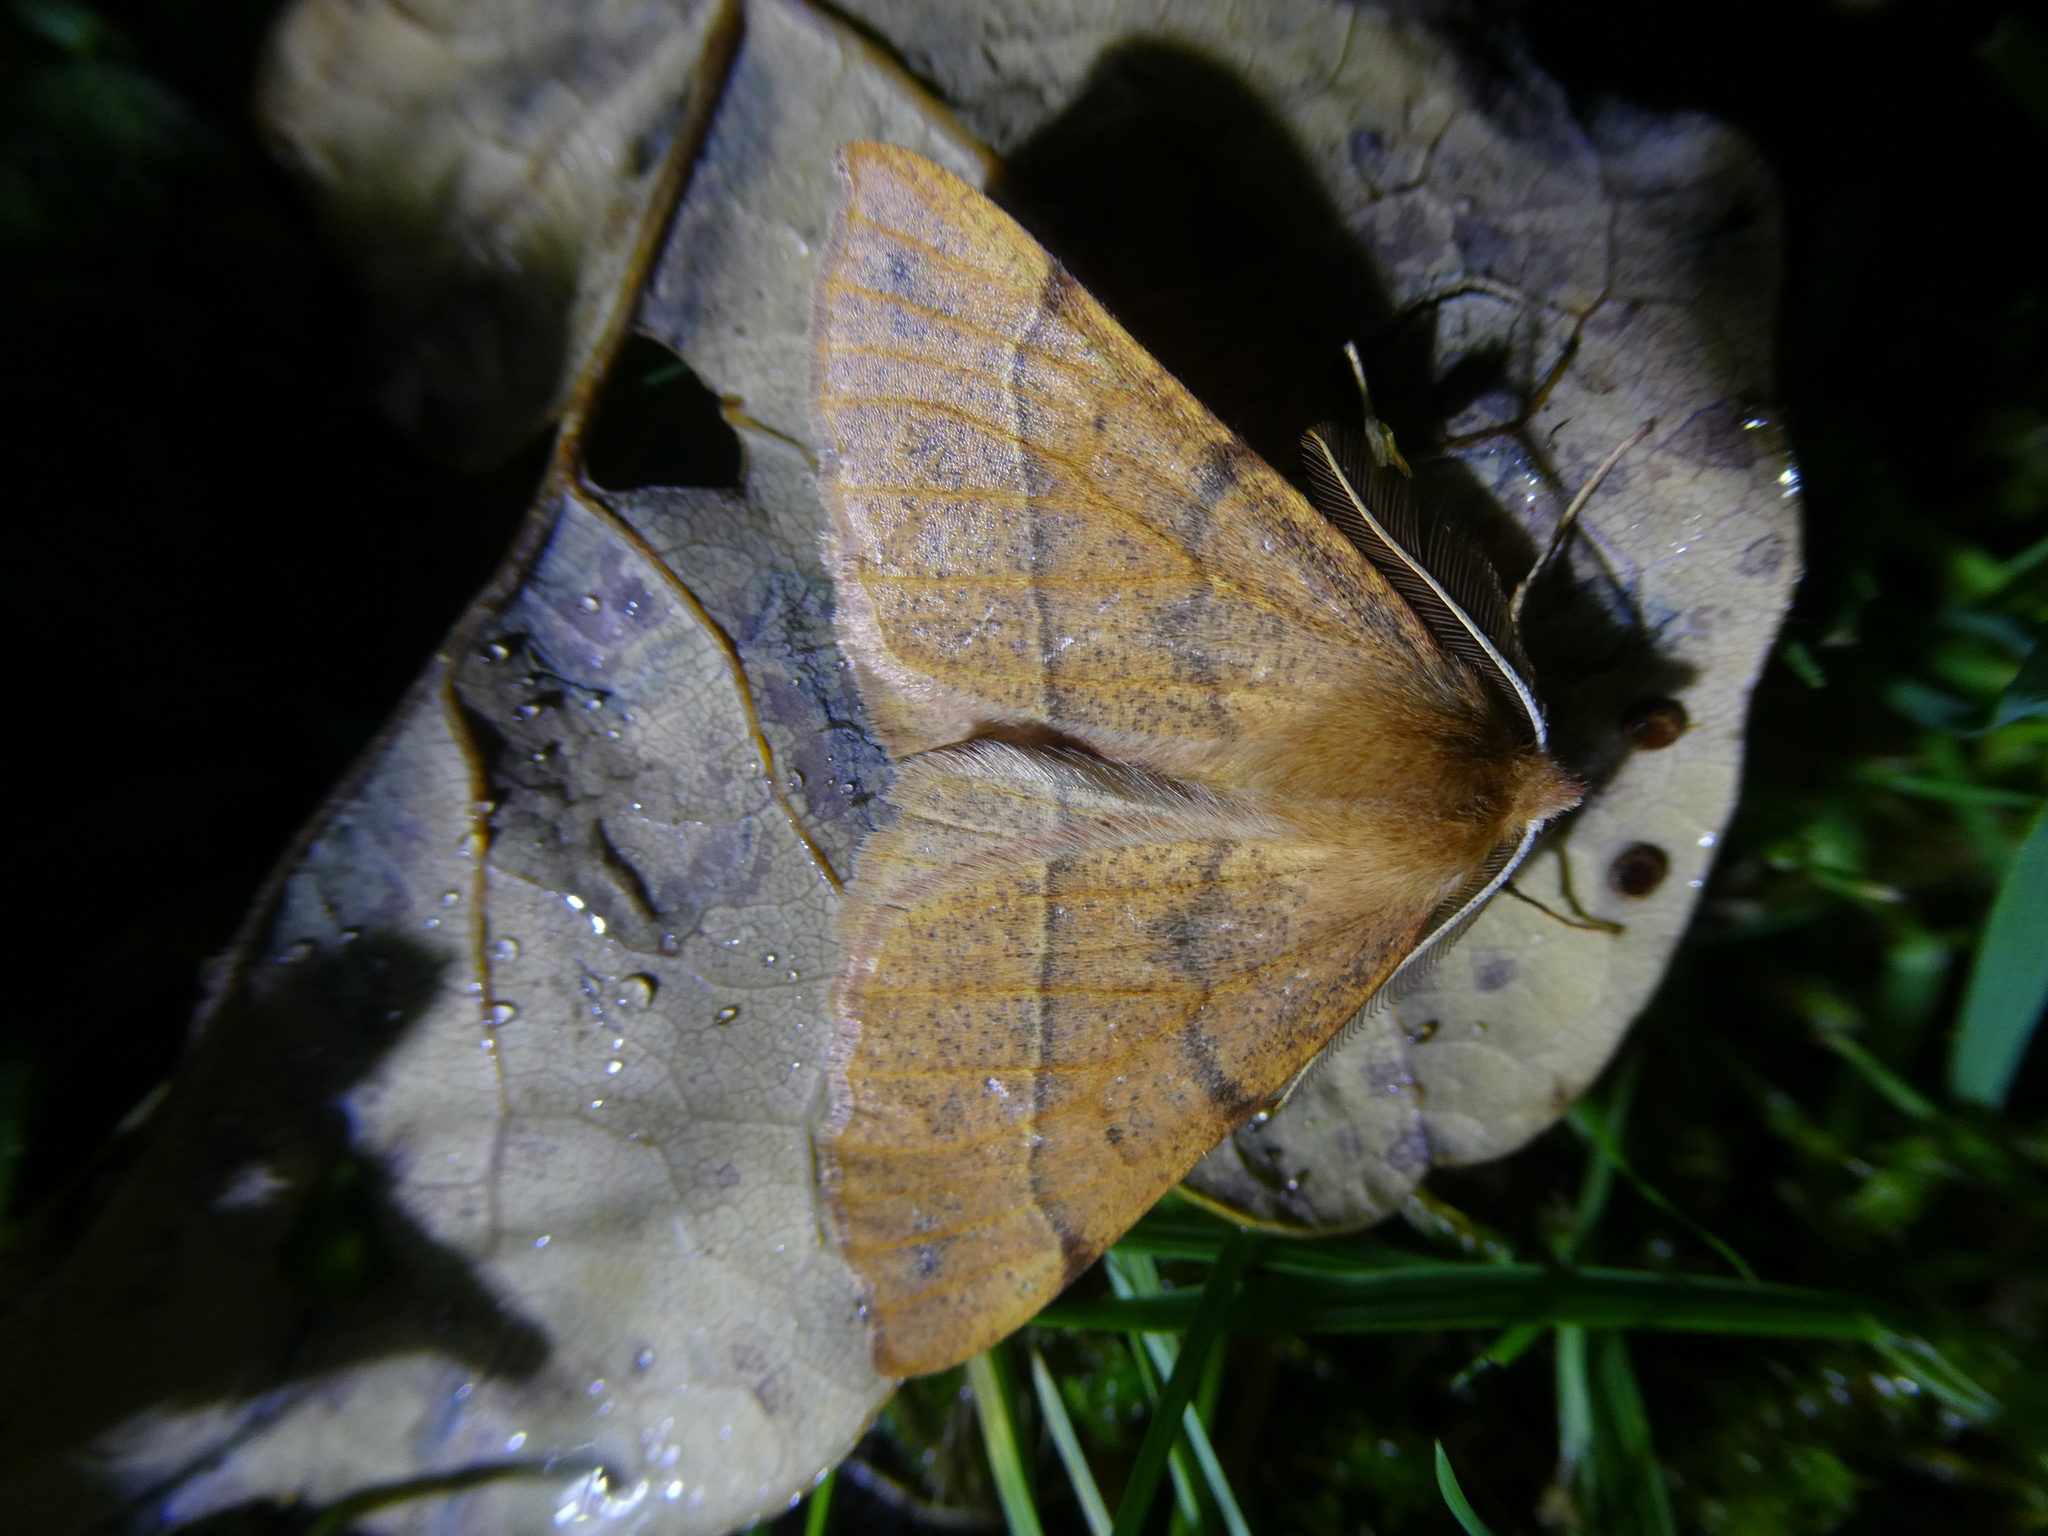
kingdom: Animalia
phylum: Arthropoda
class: Insecta
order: Lepidoptera
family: Geometridae
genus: Colotois
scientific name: Colotois pennaria
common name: Feathered thorn
